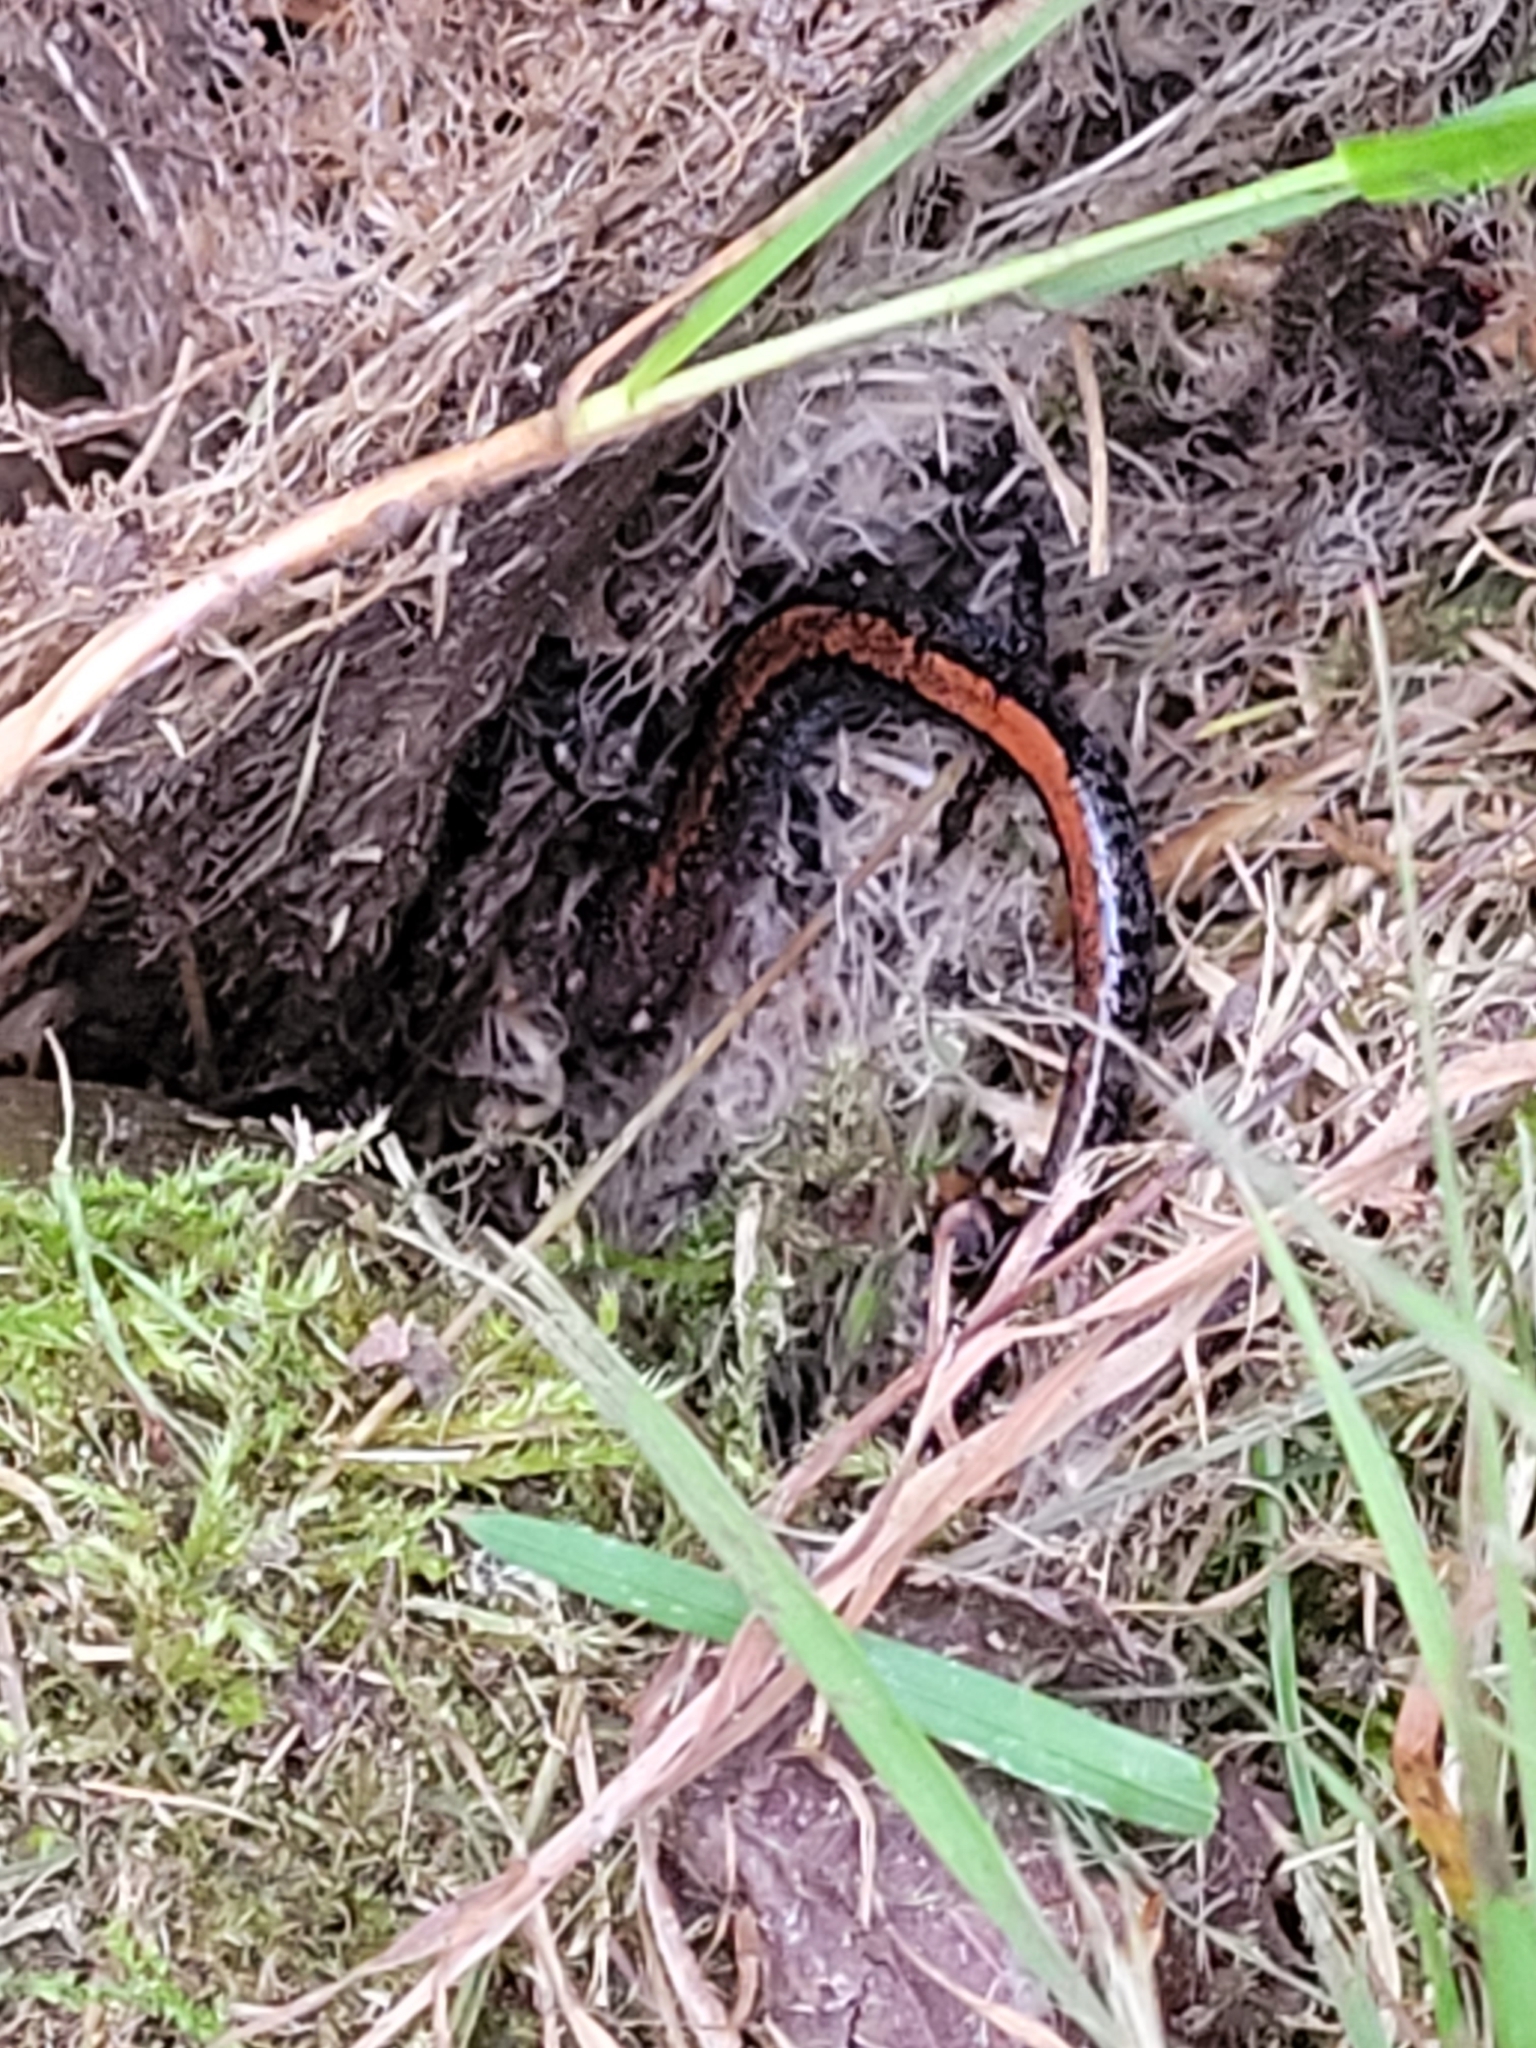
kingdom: Animalia
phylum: Chordata
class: Amphibia
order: Caudata
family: Plethodontidae
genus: Plethodon
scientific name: Plethodon cinereus
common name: Redback salamander
